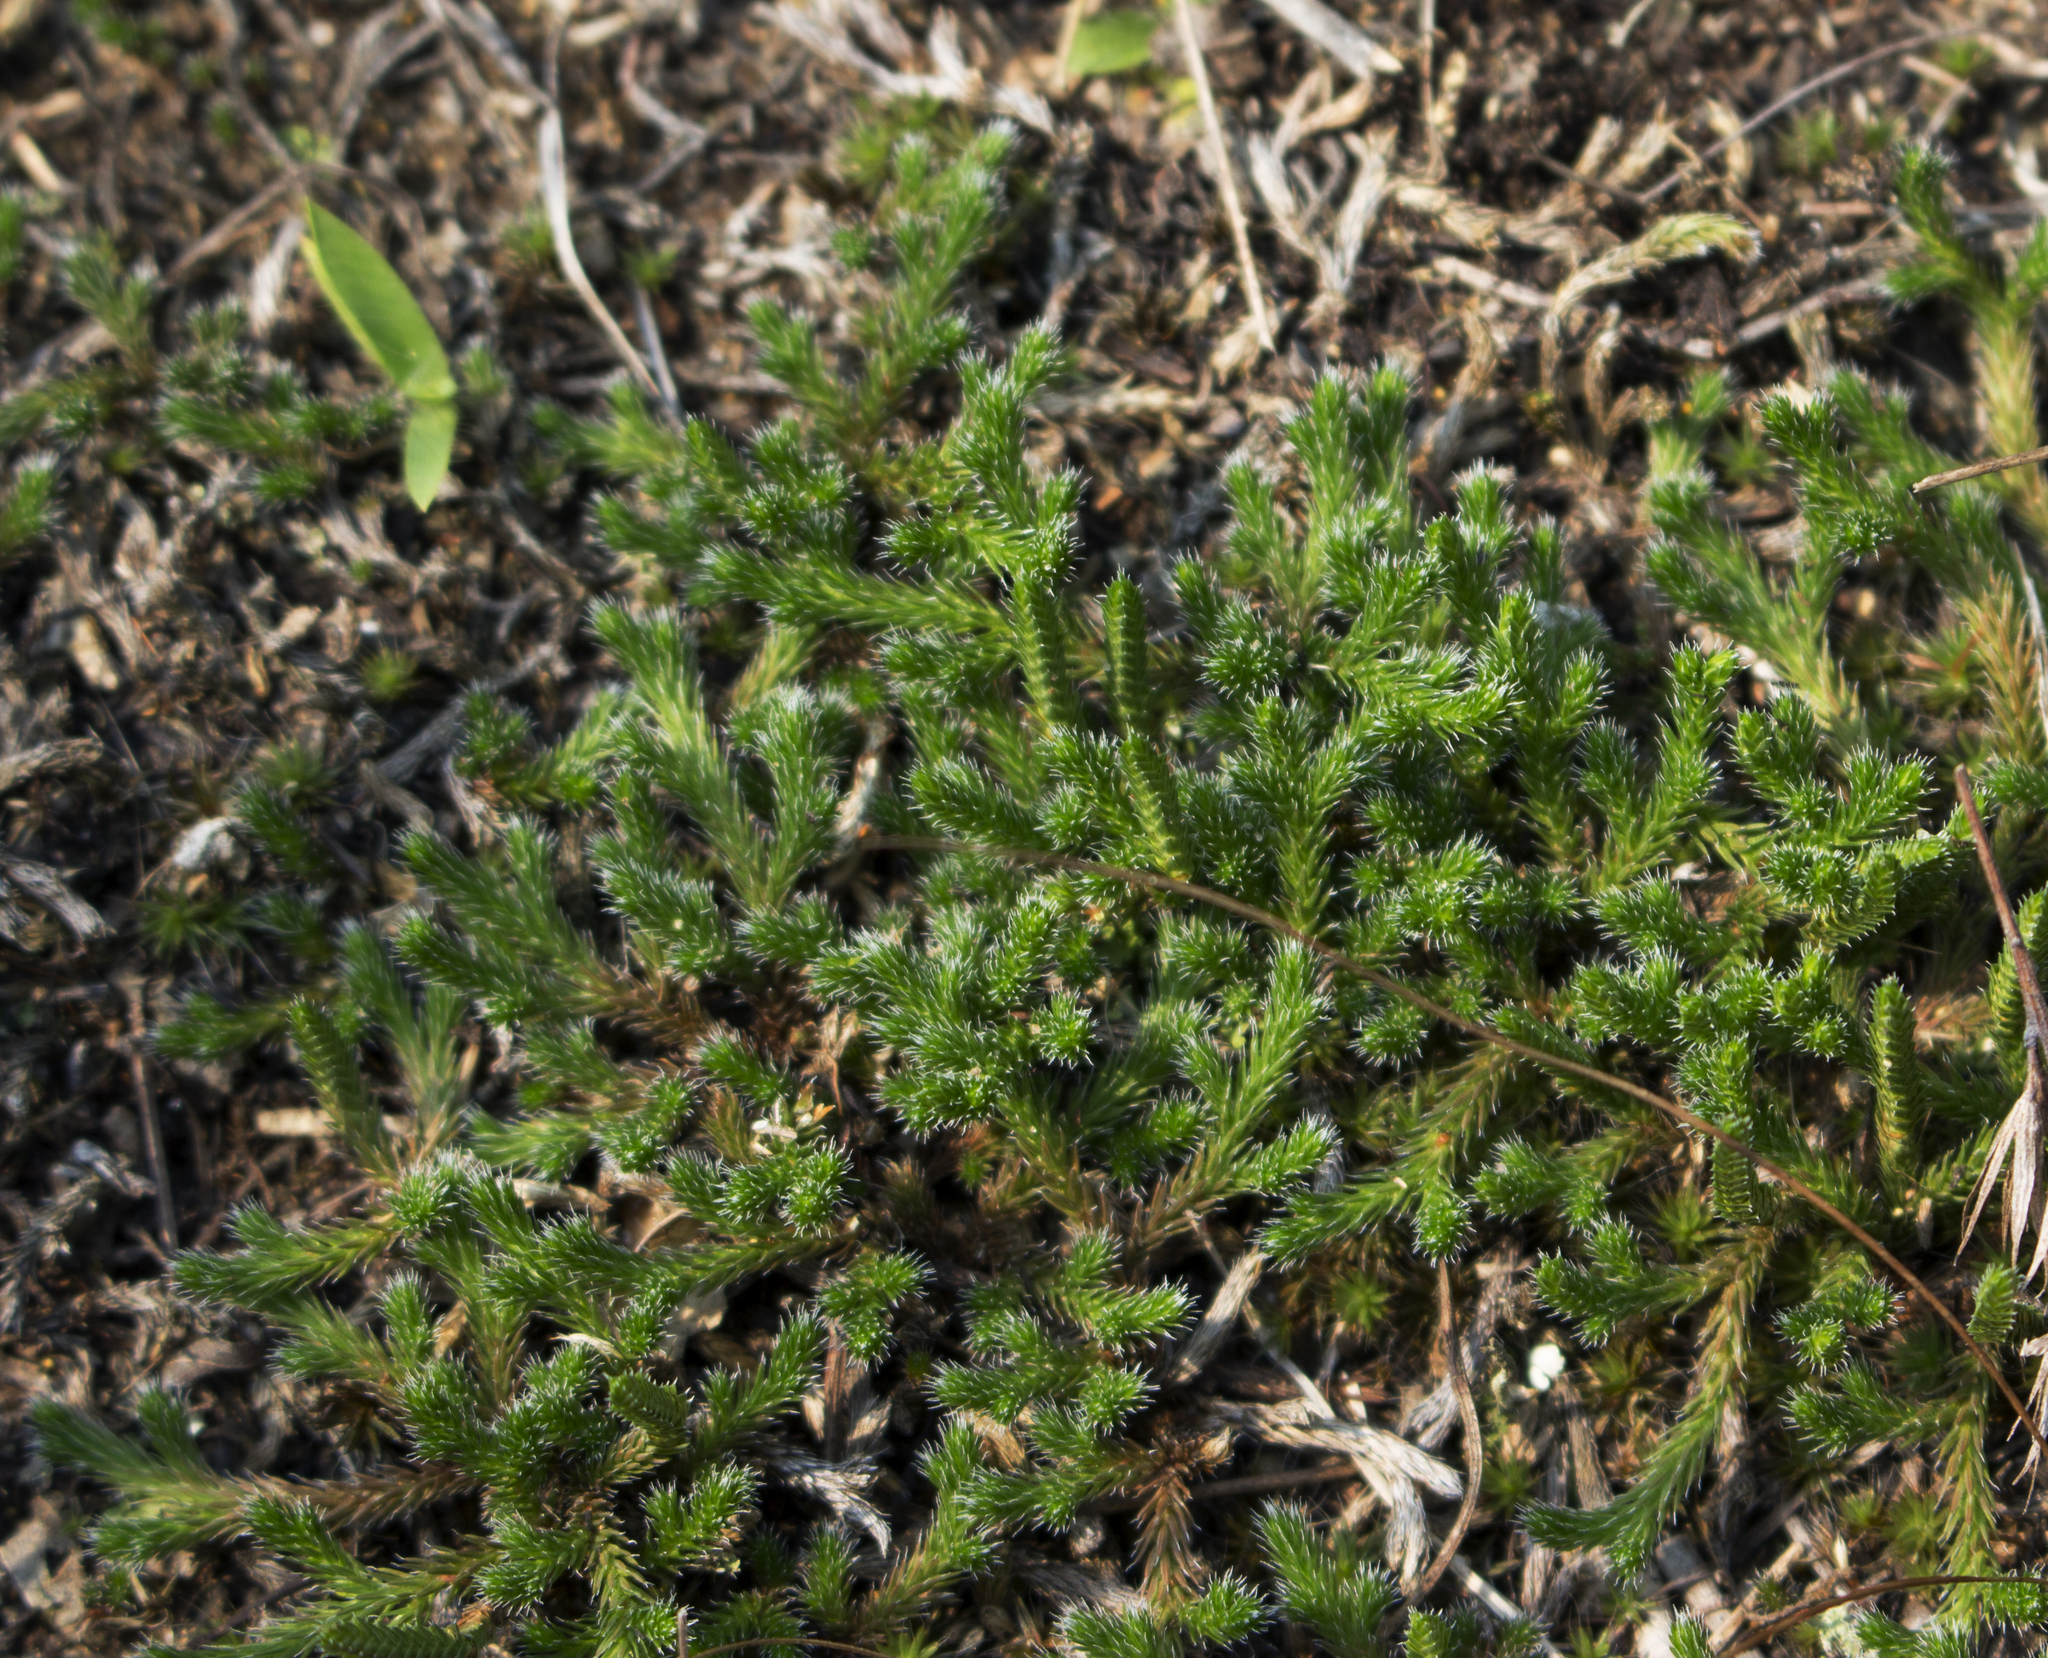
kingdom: Plantae
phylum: Tracheophyta
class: Lycopodiopsida
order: Selaginellales
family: Selaginellaceae
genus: Selaginella
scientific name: Selaginella rupestris
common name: Dwarf spikemoss
